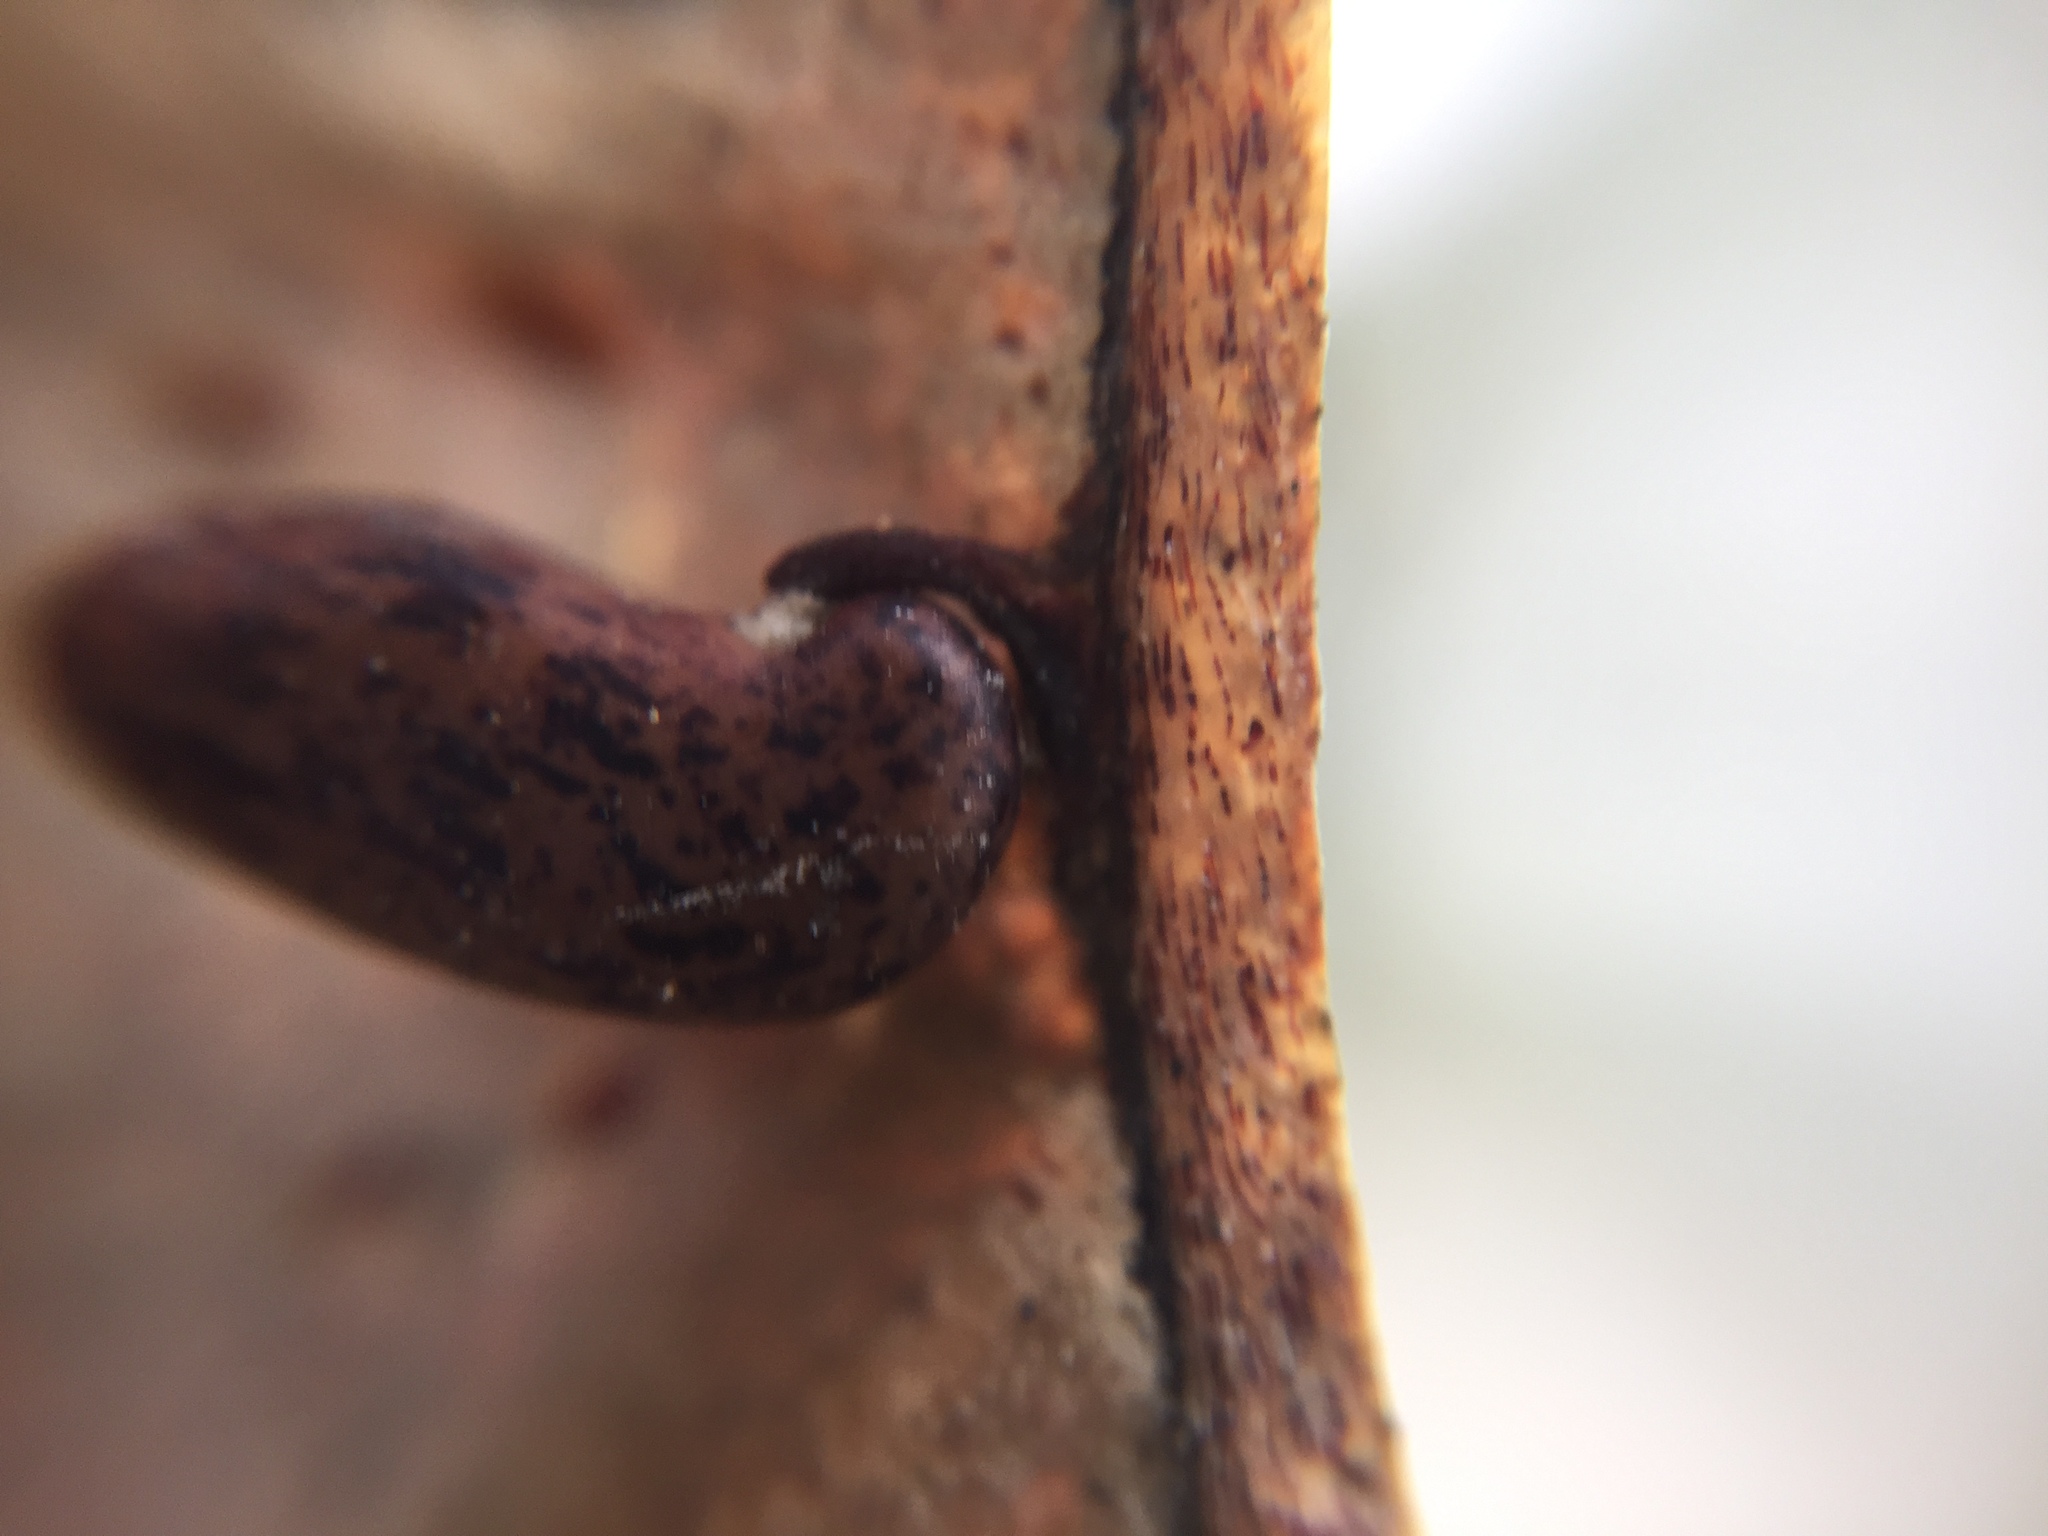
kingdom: Plantae
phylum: Tracheophyta
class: Magnoliopsida
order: Fabales
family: Fabaceae
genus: Robinia
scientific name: Robinia pseudoacacia
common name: Black locust
